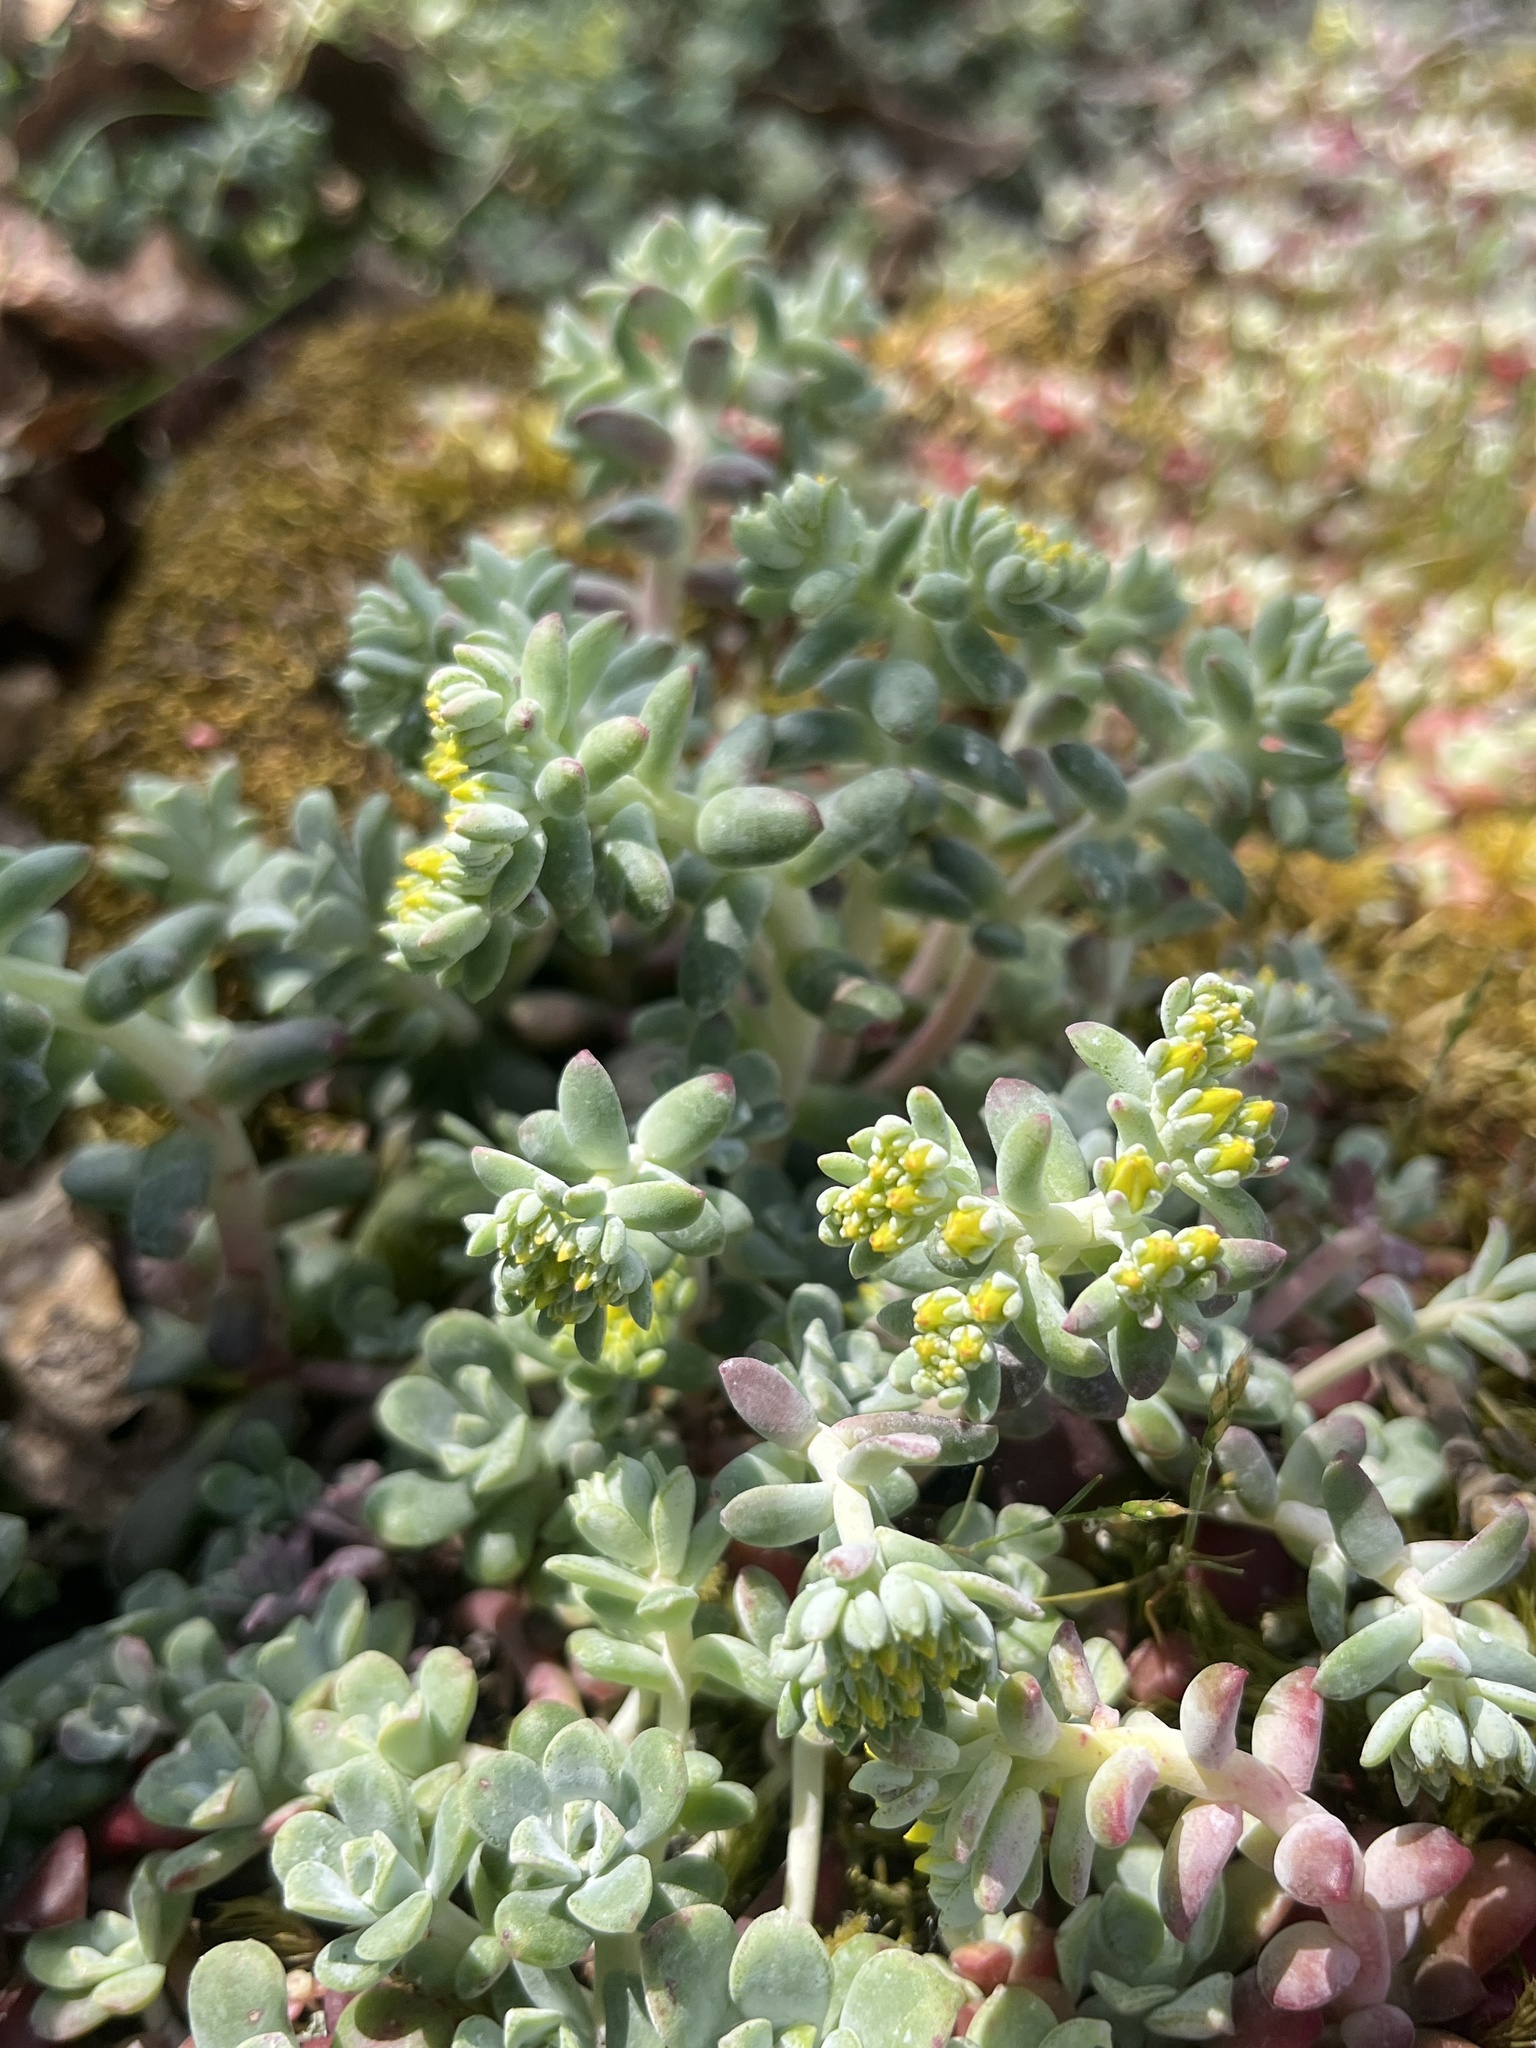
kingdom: Plantae
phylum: Tracheophyta
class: Magnoliopsida
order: Saxifragales
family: Crassulaceae
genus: Sedum
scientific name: Sedum spathulifolium
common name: Colorado stonecrop
